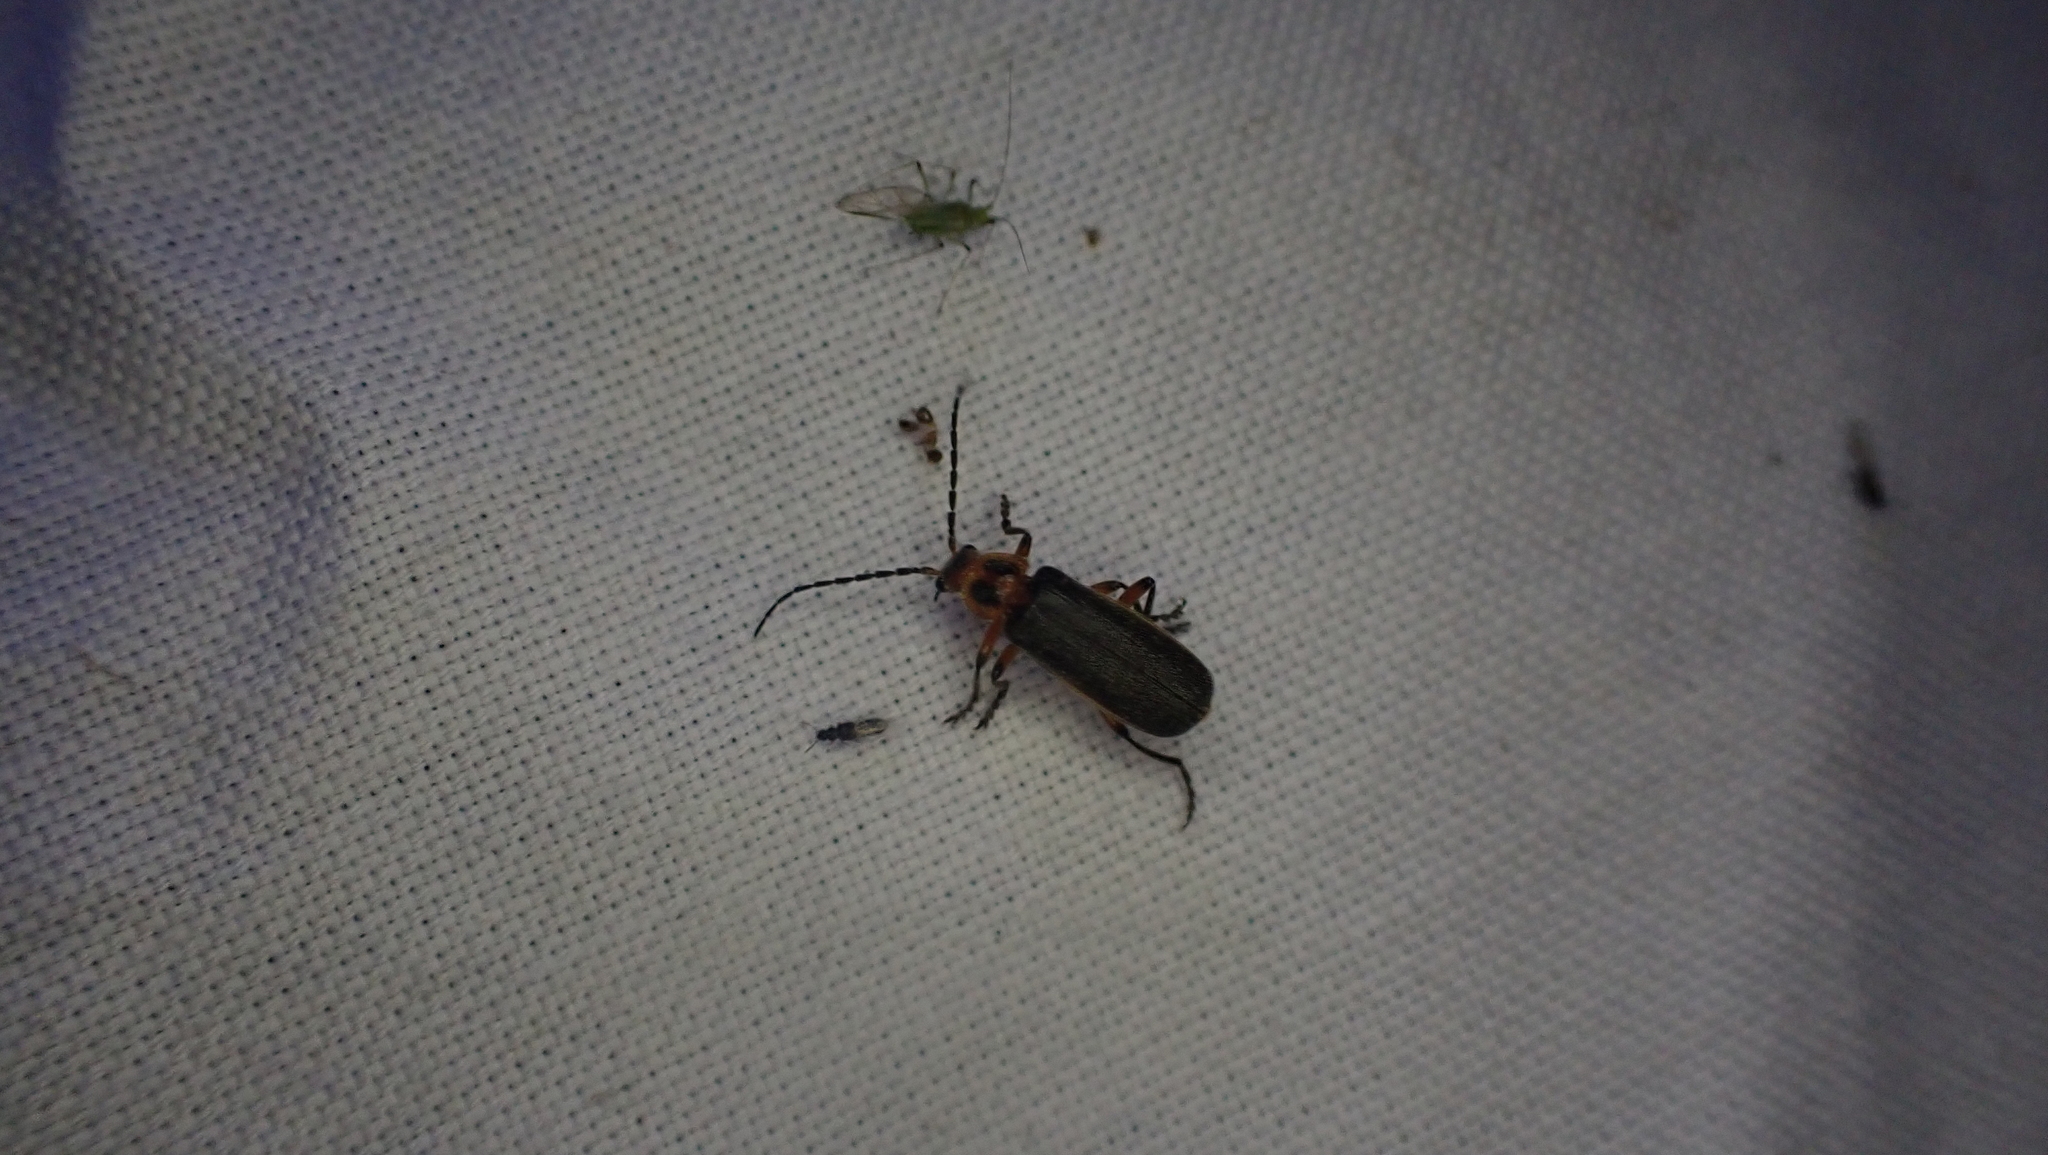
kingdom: Animalia
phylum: Arthropoda
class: Insecta
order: Coleoptera
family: Cantharidae
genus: Atalantycha
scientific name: Atalantycha bilineata
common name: Two-lined leatherwing
